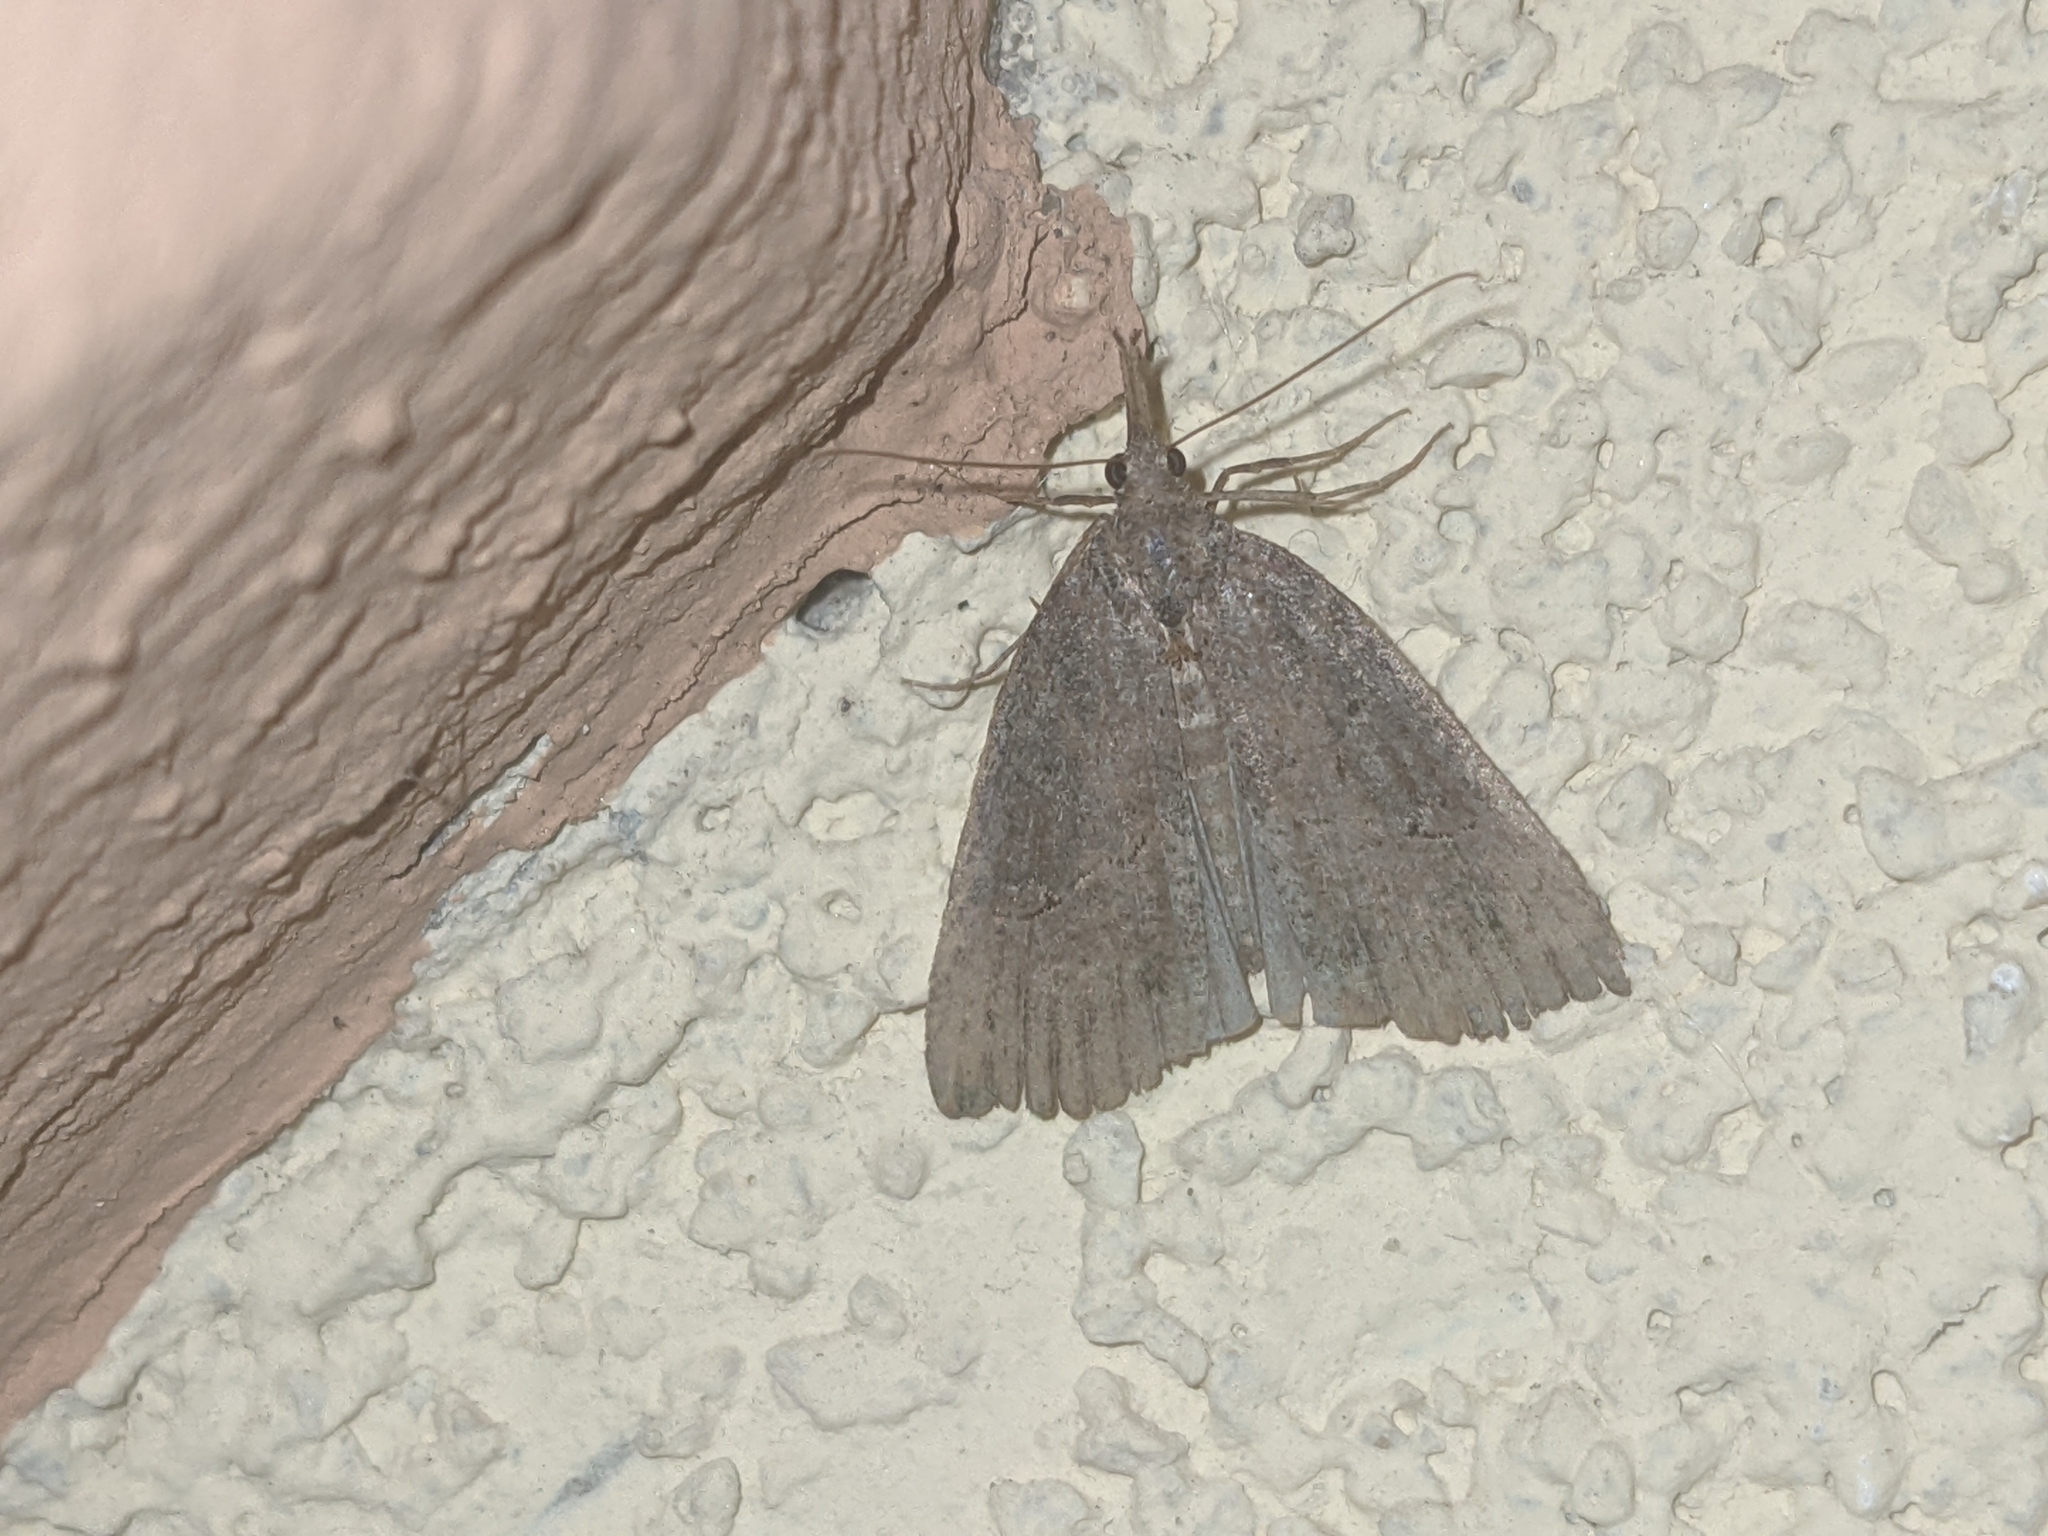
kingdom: Animalia
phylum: Arthropoda
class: Insecta
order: Lepidoptera
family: Erebidae
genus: Hypena
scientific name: Hypena rostralis
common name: Buttoned snout
